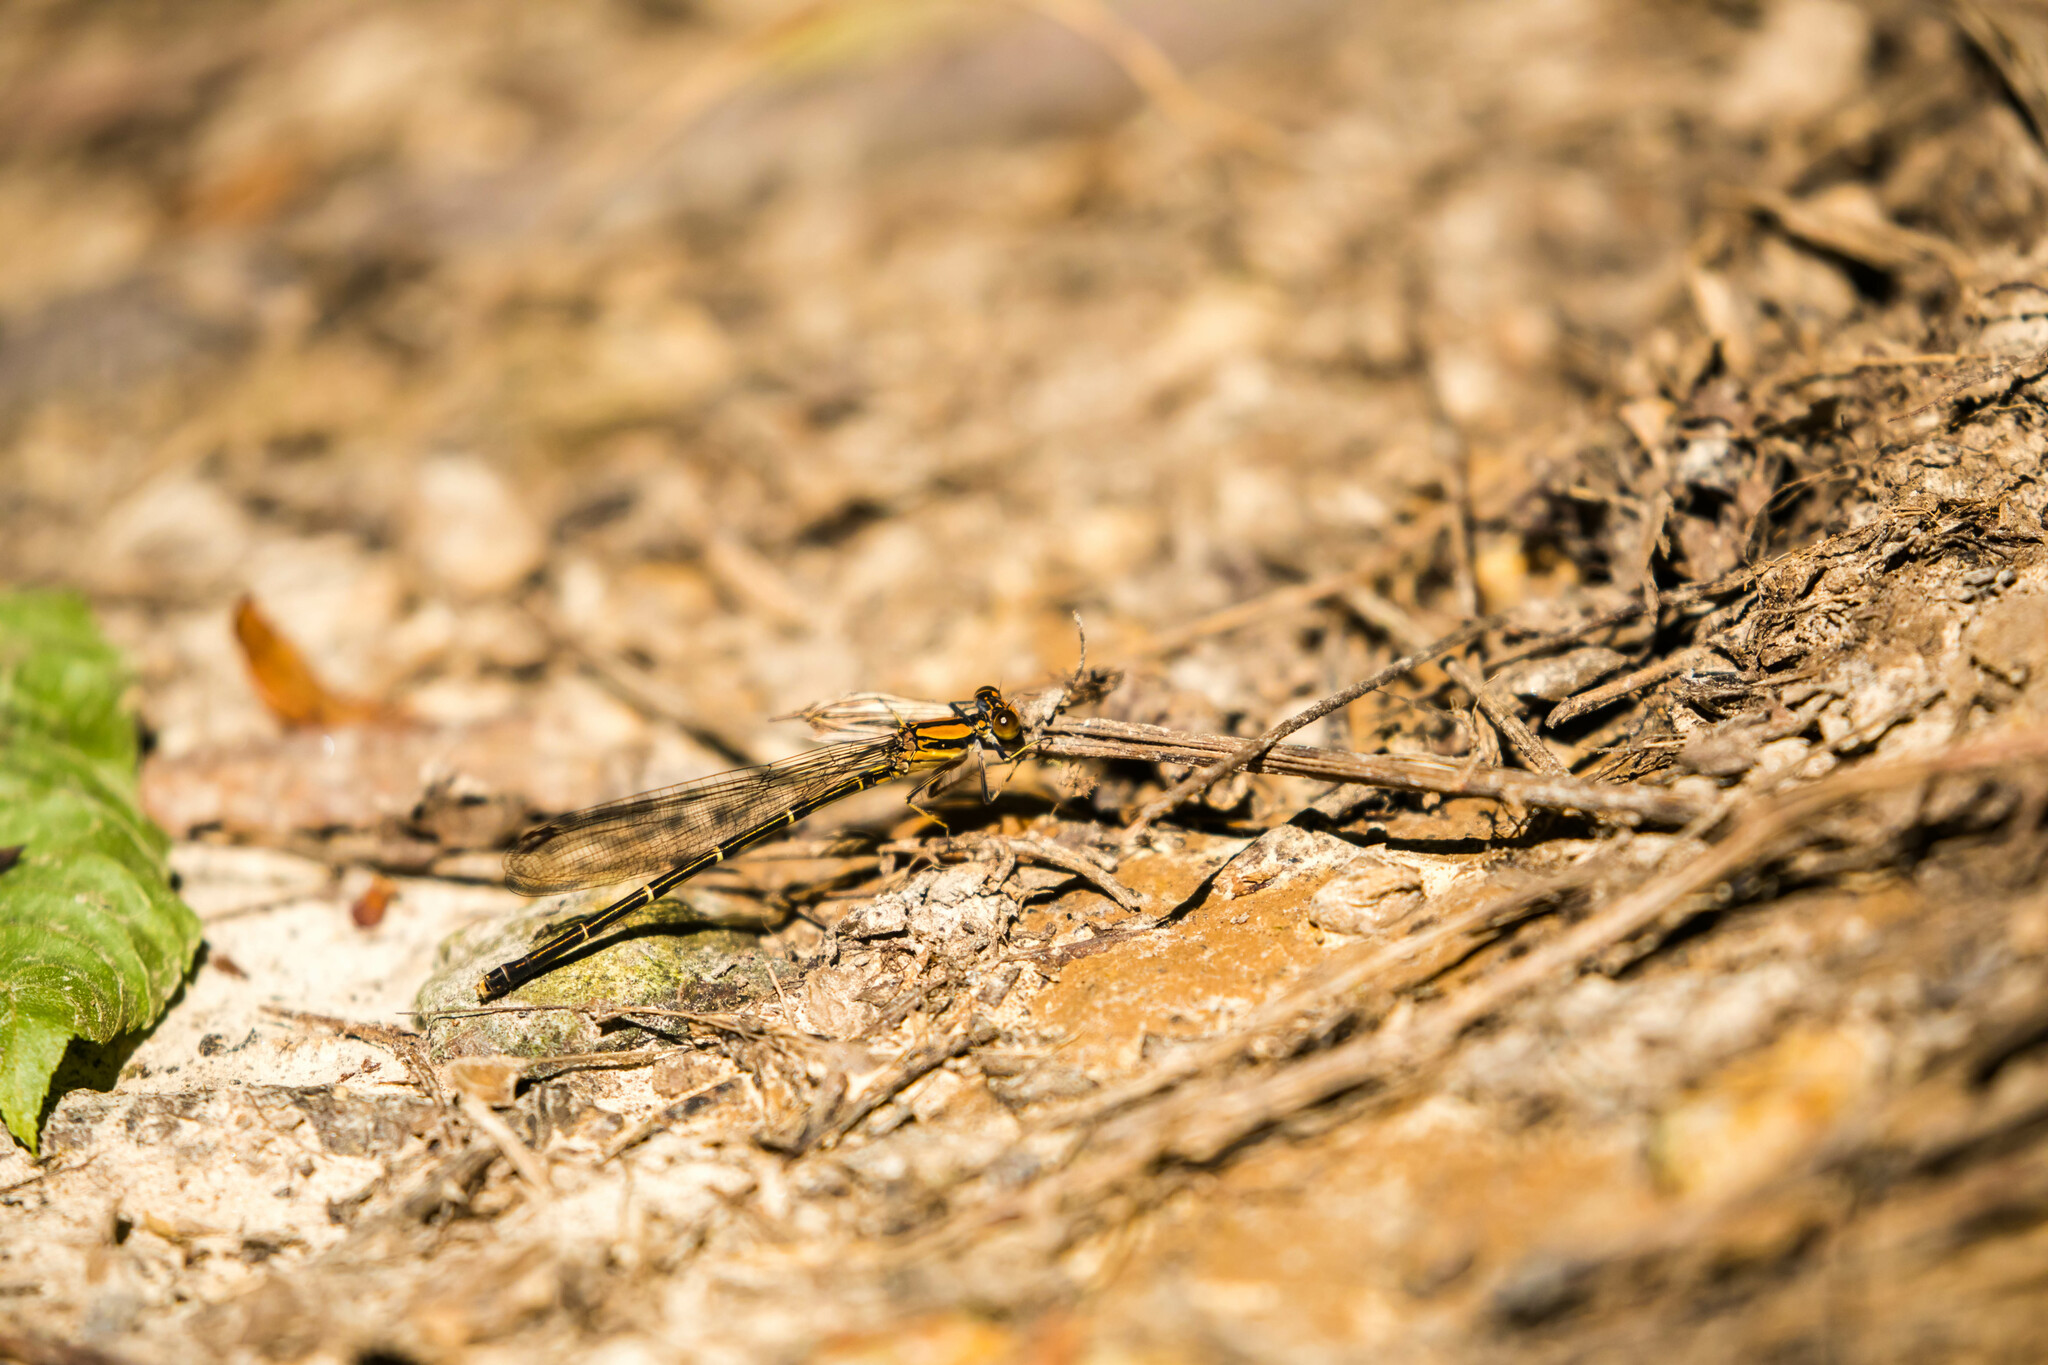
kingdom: Animalia
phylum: Arthropoda
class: Insecta
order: Odonata
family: Coenagrionidae
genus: Argia
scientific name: Argia sedula
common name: Blue-ringed dancer
